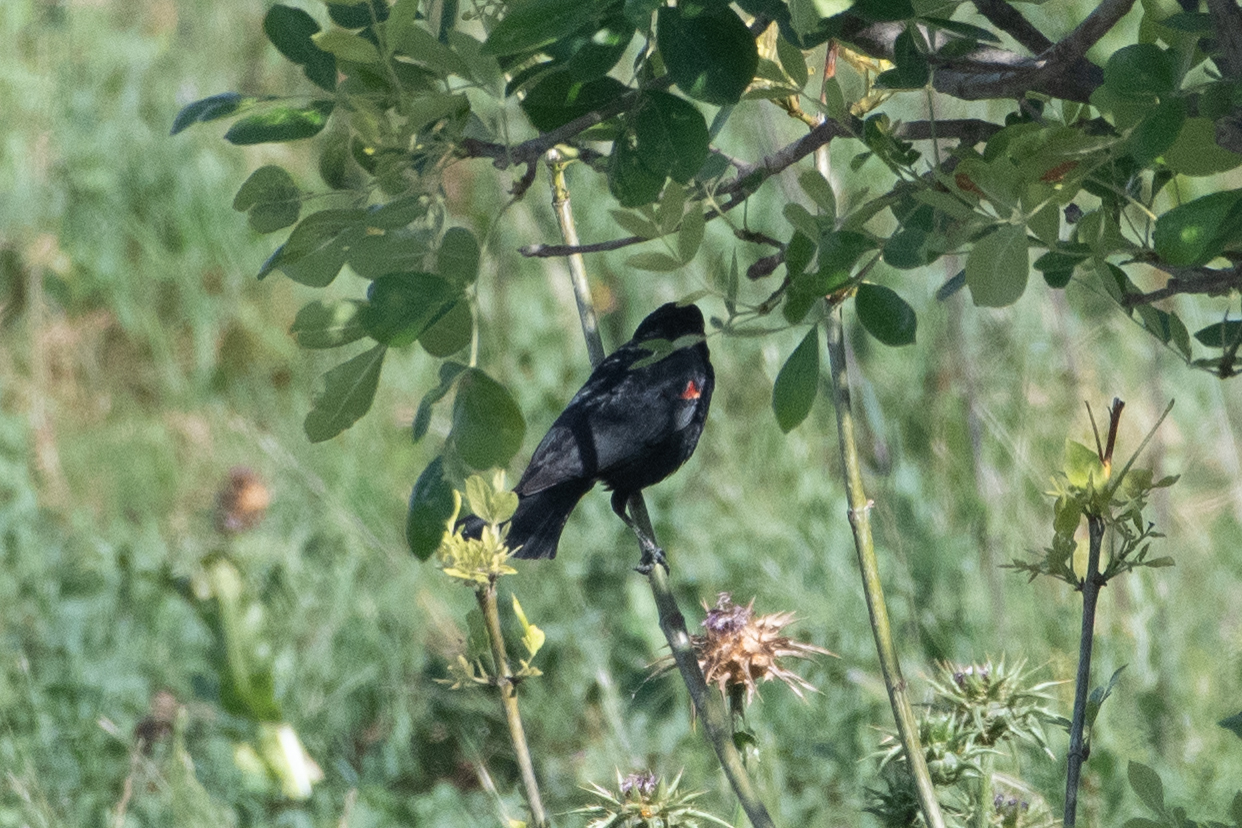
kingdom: Animalia
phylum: Chordata
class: Aves
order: Passeriformes
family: Icteridae
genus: Agelaius
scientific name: Agelaius phoeniceus
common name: Red-winged blackbird
